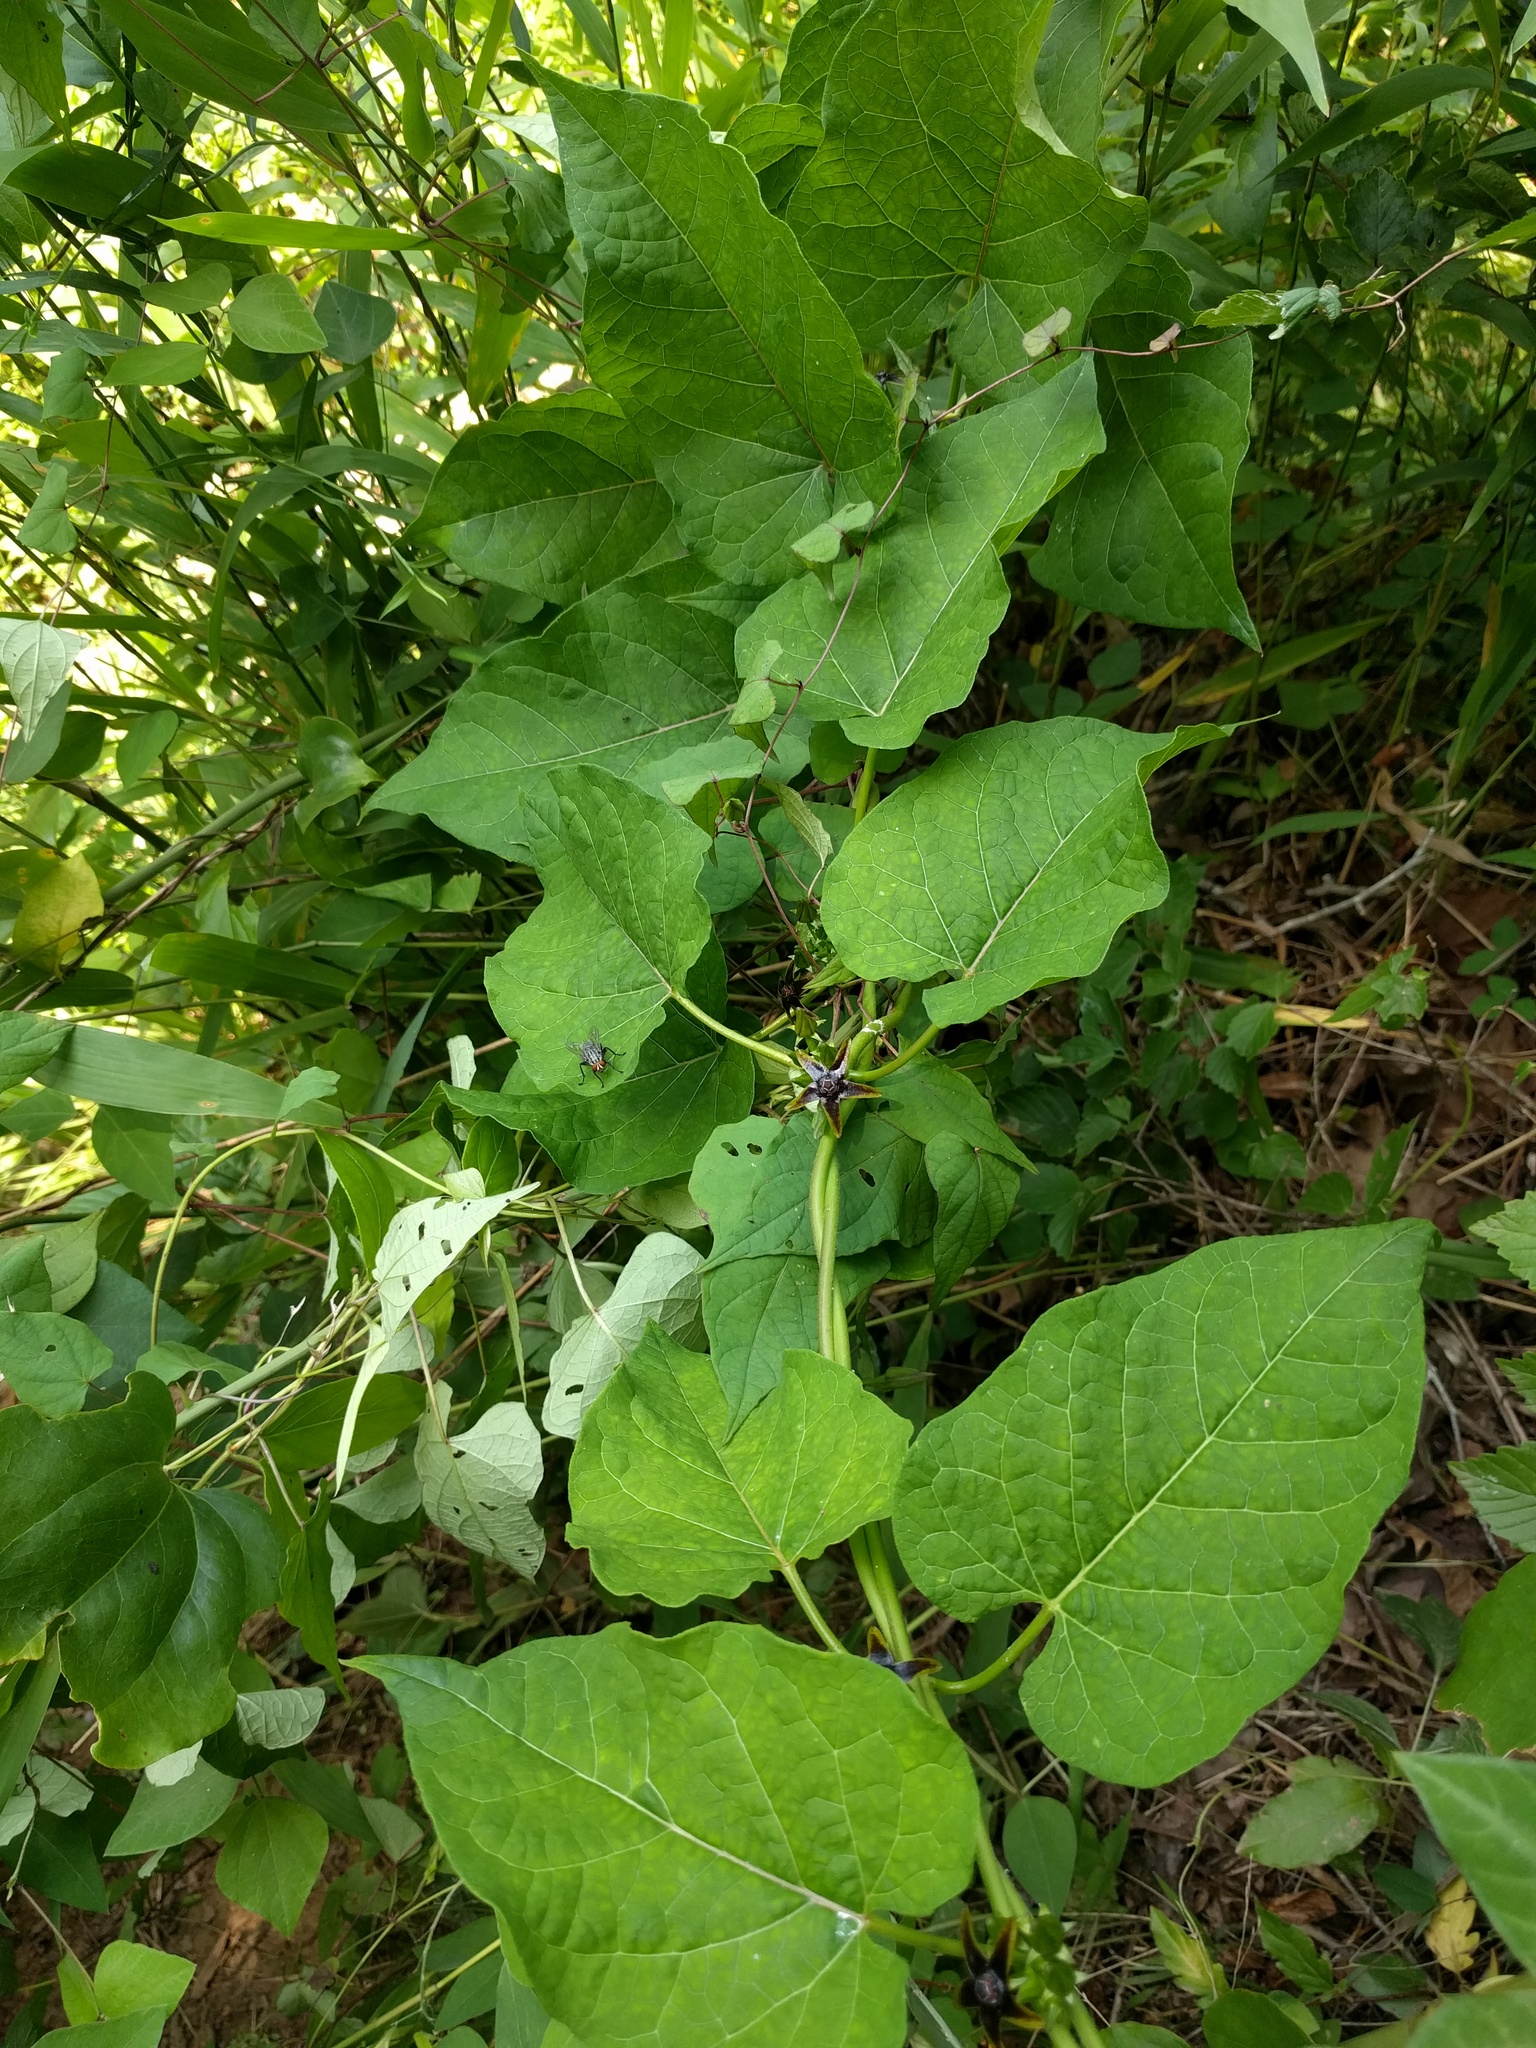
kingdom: Plantae
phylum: Tracheophyta
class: Magnoliopsida
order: Gentianales
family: Apocynaceae
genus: Gonolobus
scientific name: Gonolobus suberosus
